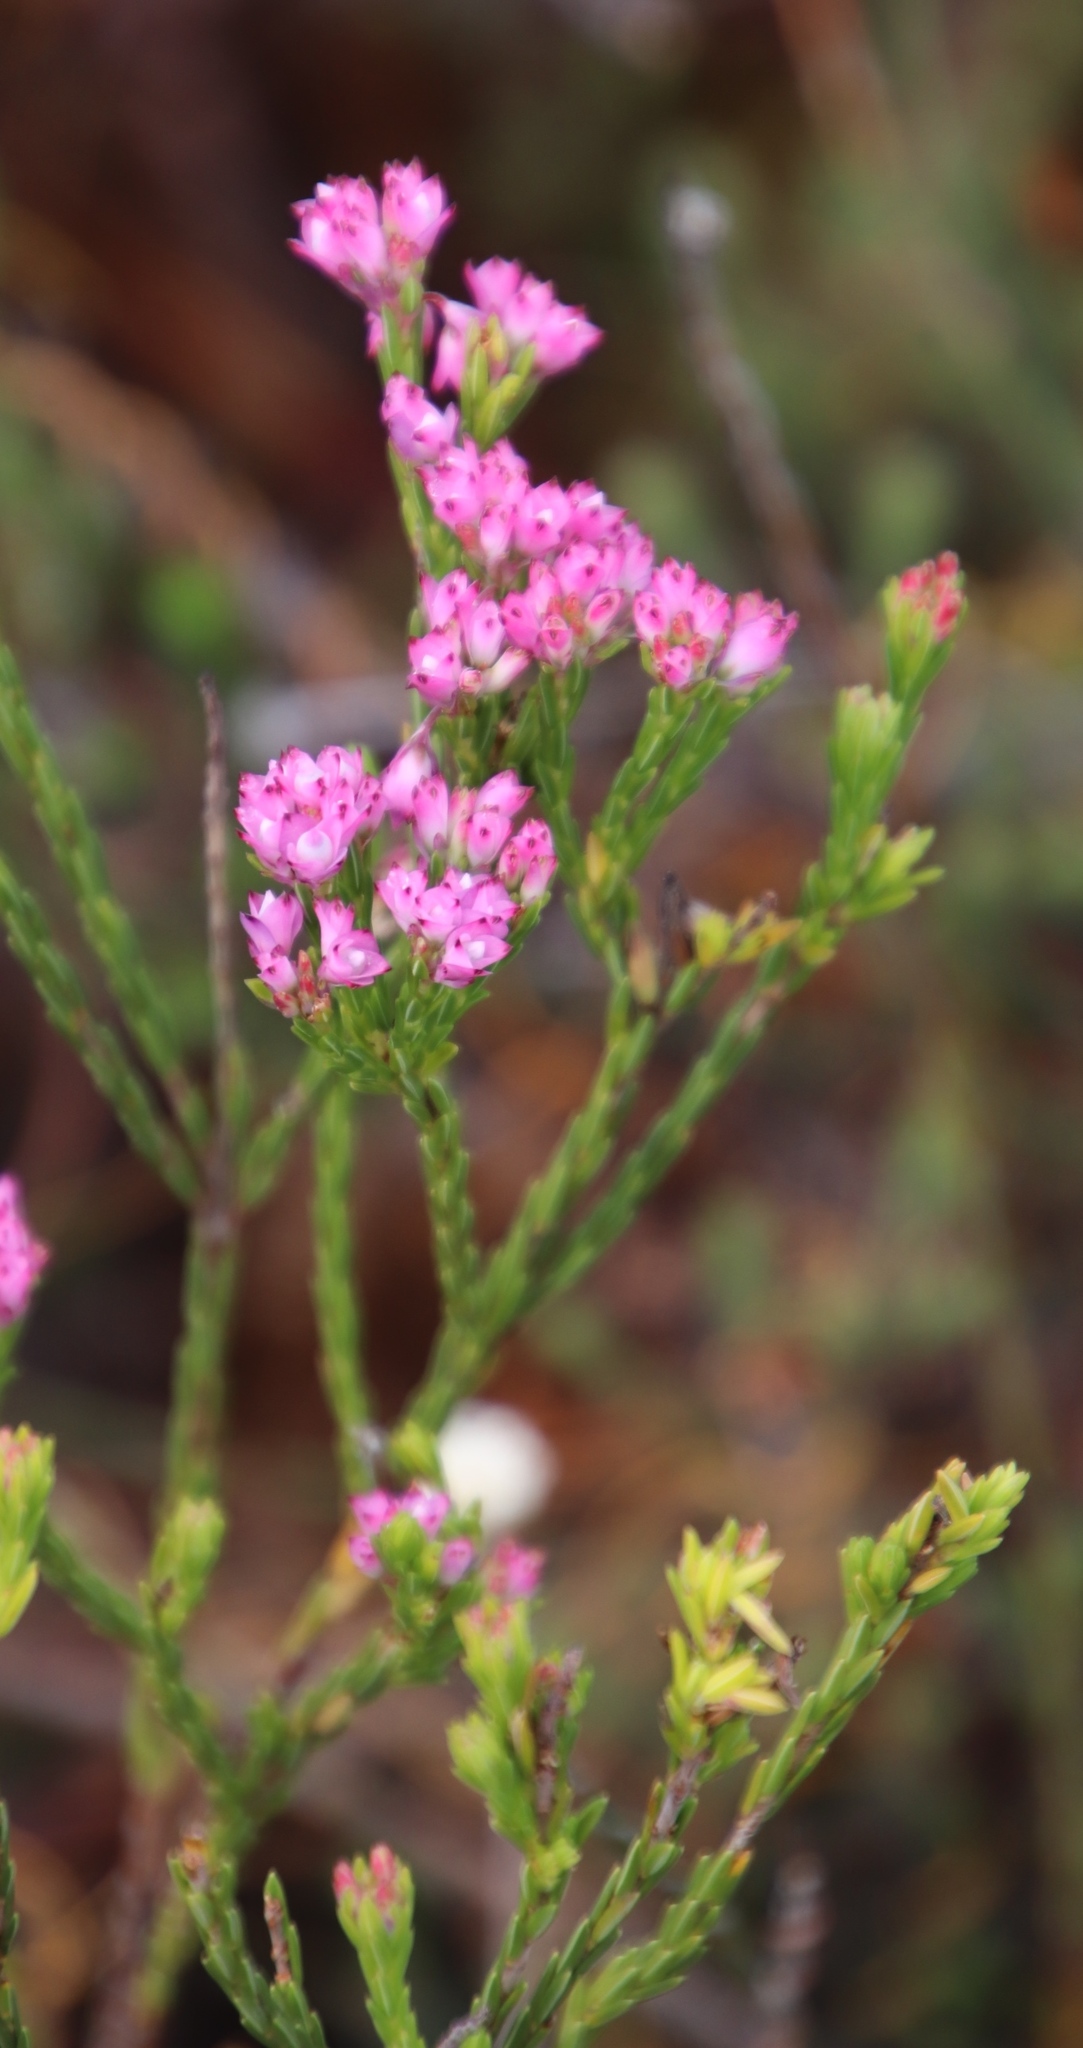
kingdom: Plantae
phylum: Tracheophyta
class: Magnoliopsida
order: Ericales
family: Ericaceae
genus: Erica
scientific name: Erica corifolia
